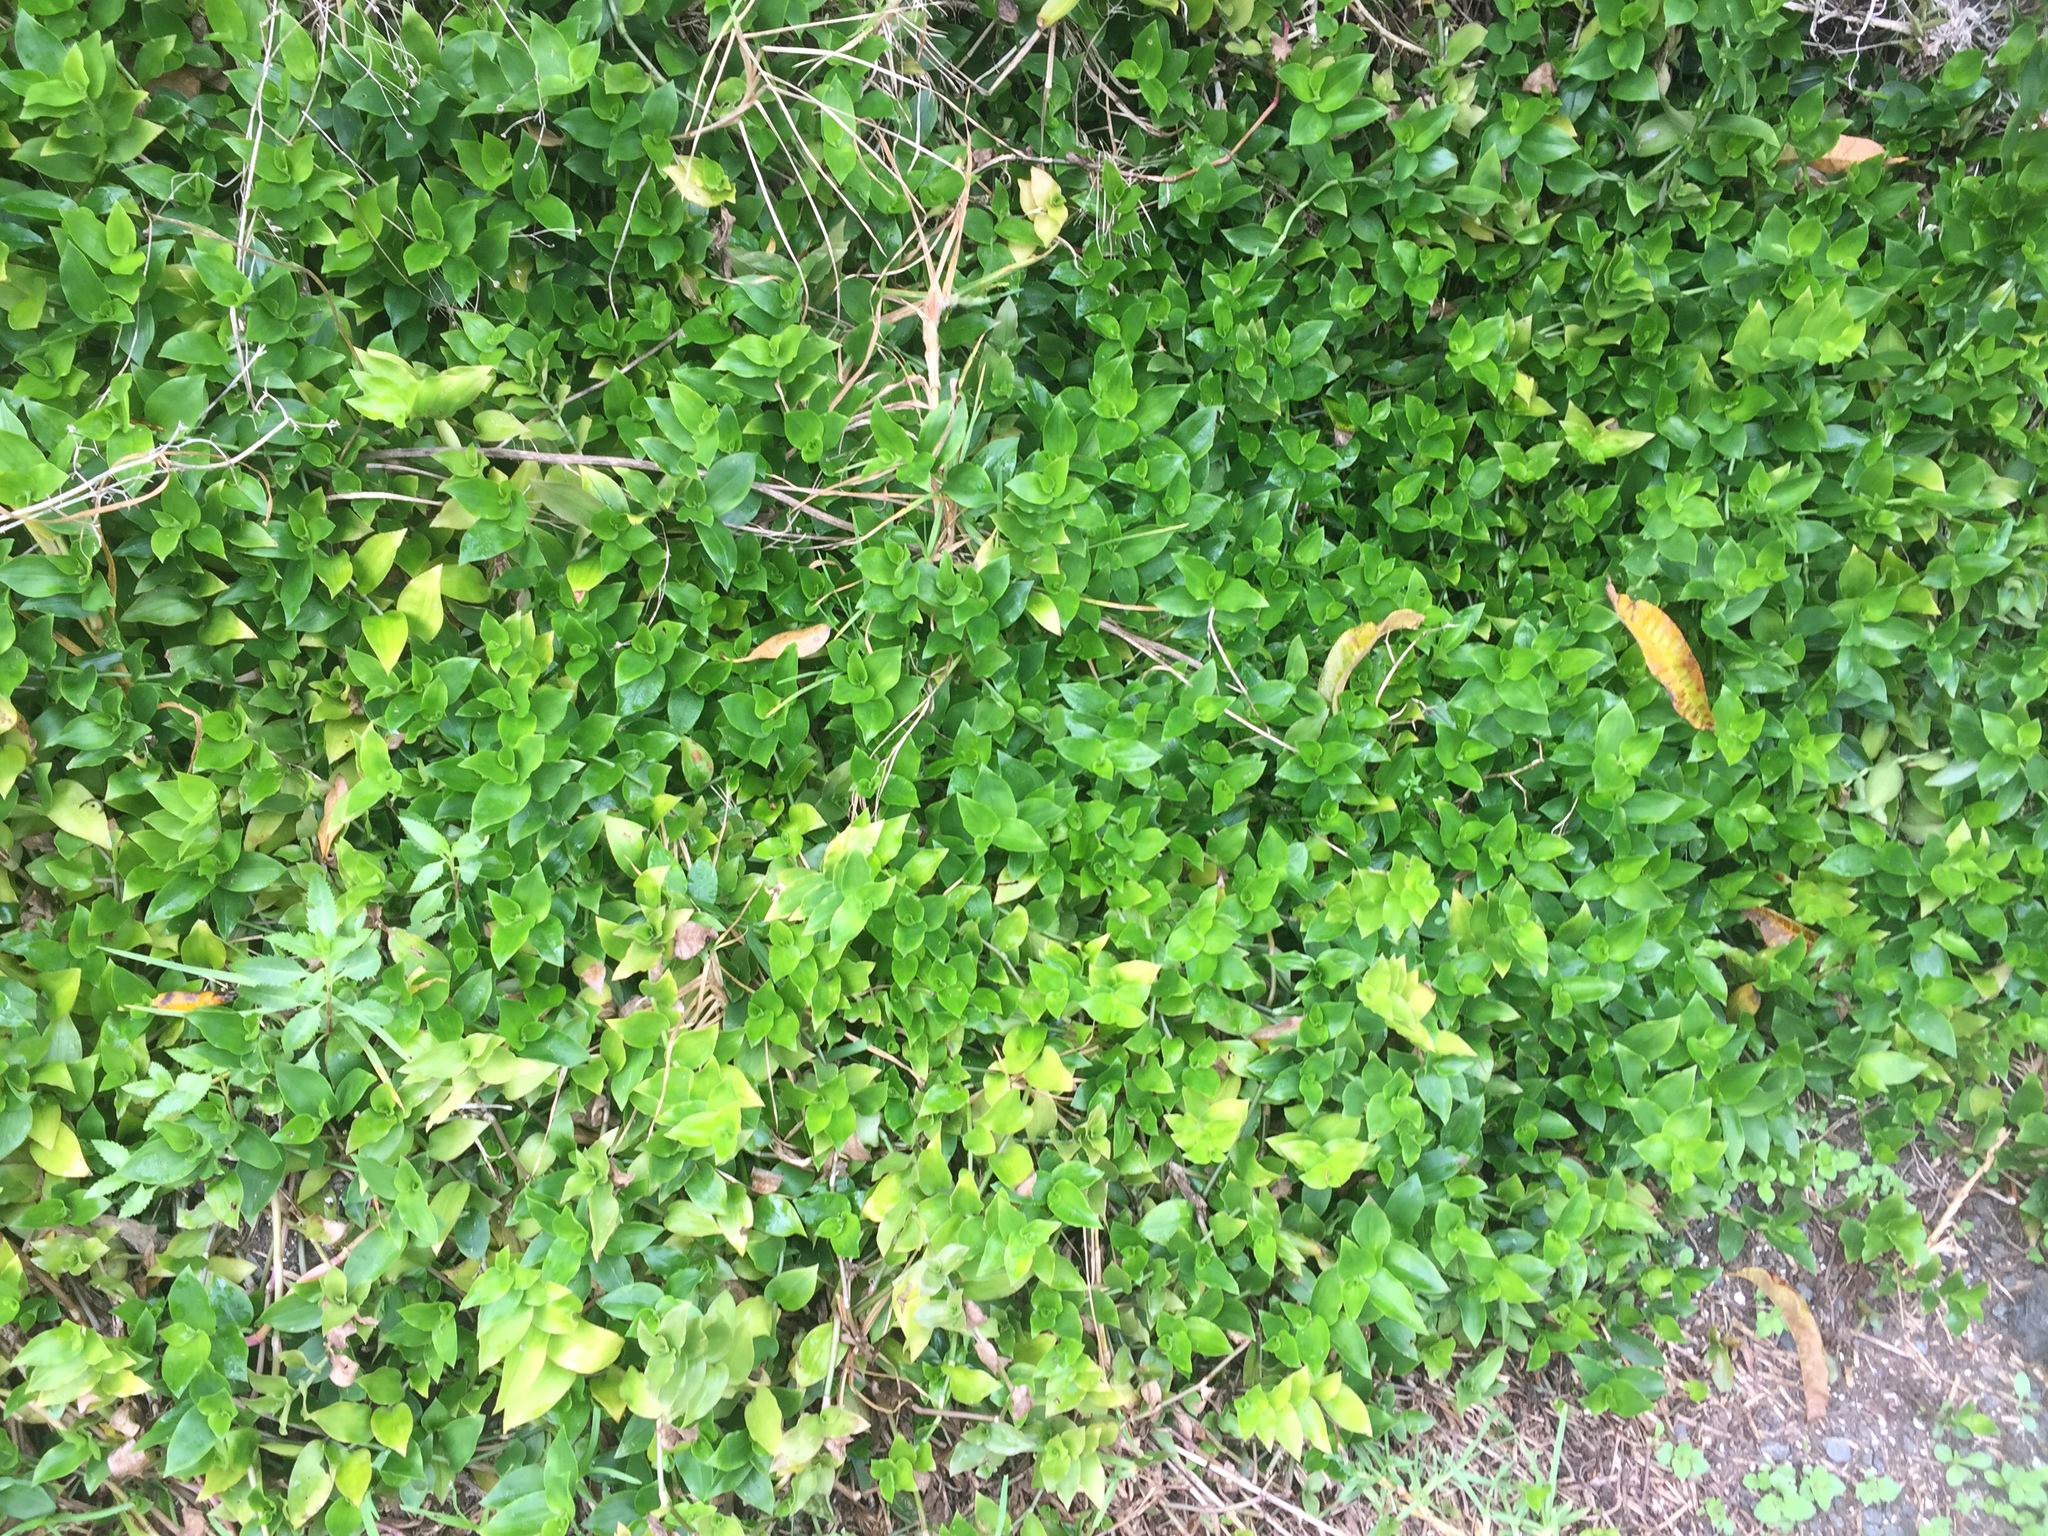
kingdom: Plantae
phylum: Tracheophyta
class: Liliopsida
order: Commelinales
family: Commelinaceae
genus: Tradescantia
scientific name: Tradescantia fluminensis
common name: Wandering-jew
